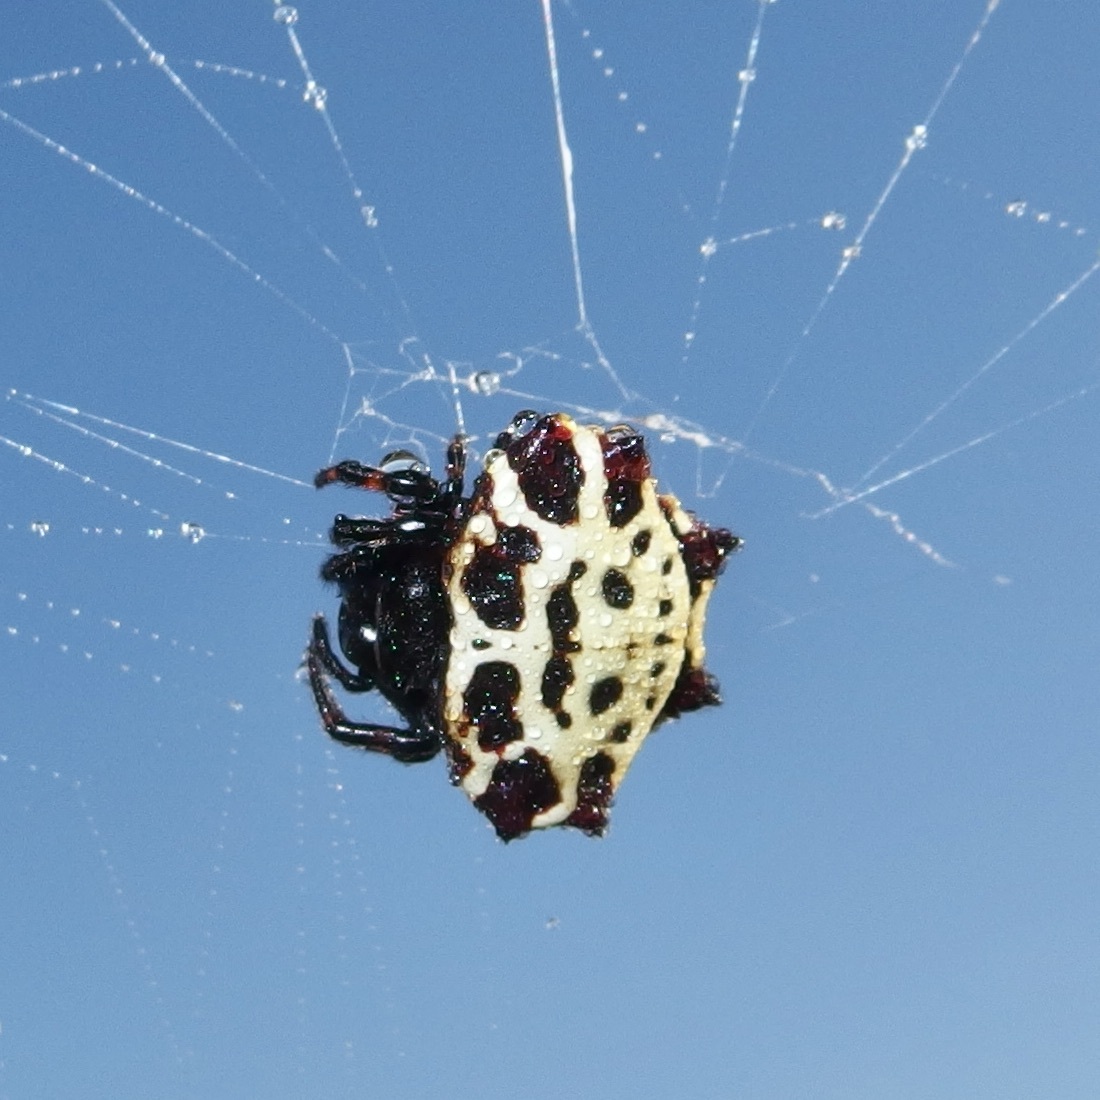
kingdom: Animalia
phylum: Arthropoda
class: Arachnida
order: Araneae
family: Araneidae
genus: Gasteracantha
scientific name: Gasteracantha cancriformis
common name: Orb weavers
